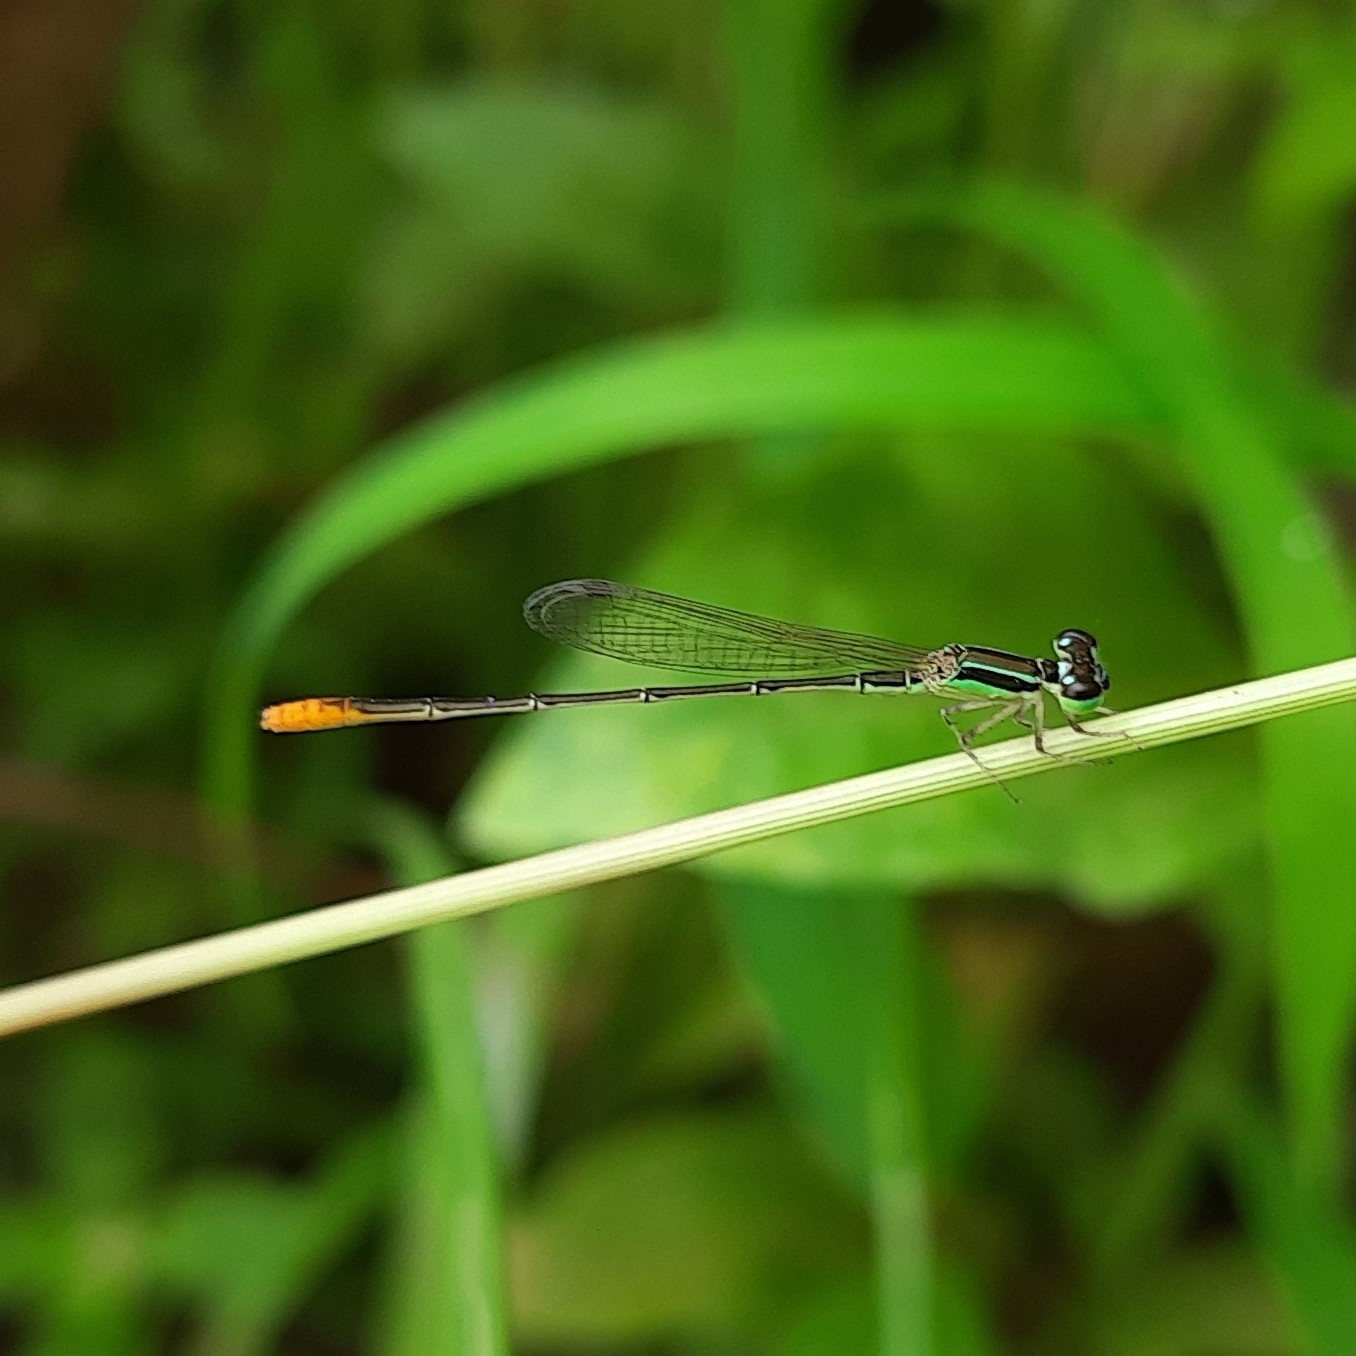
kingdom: Animalia
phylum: Arthropoda
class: Insecta
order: Odonata
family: Coenagrionidae
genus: Agriocnemis
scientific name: Agriocnemis pygmaea
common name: Pygmy wisp
